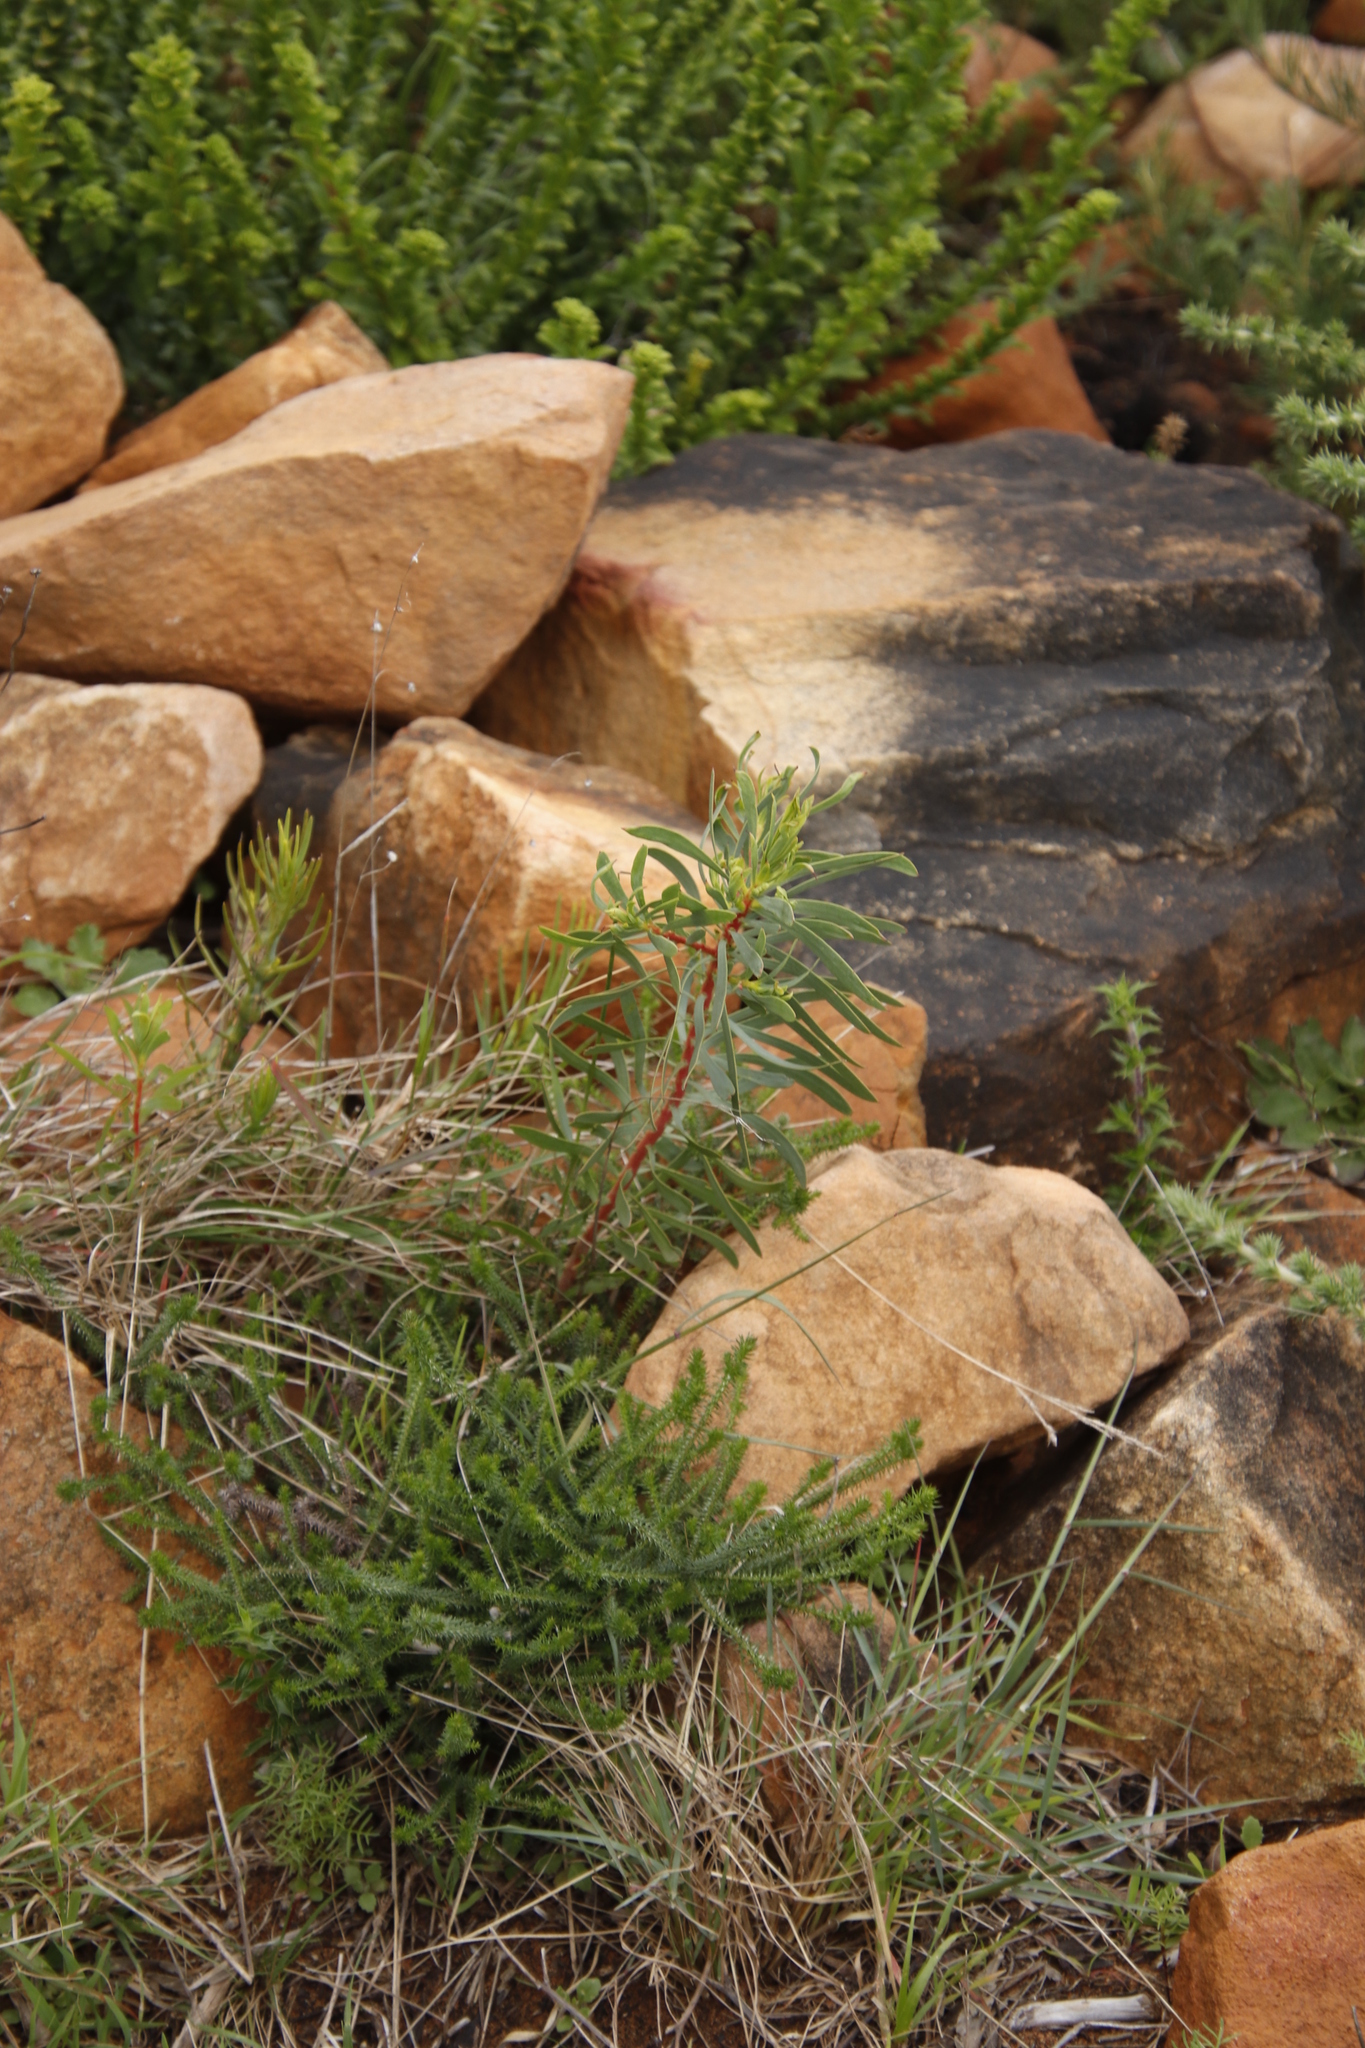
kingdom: Plantae
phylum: Tracheophyta
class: Magnoliopsida
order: Proteales
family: Proteaceae
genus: Protea
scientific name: Protea repens
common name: Sugarbush
